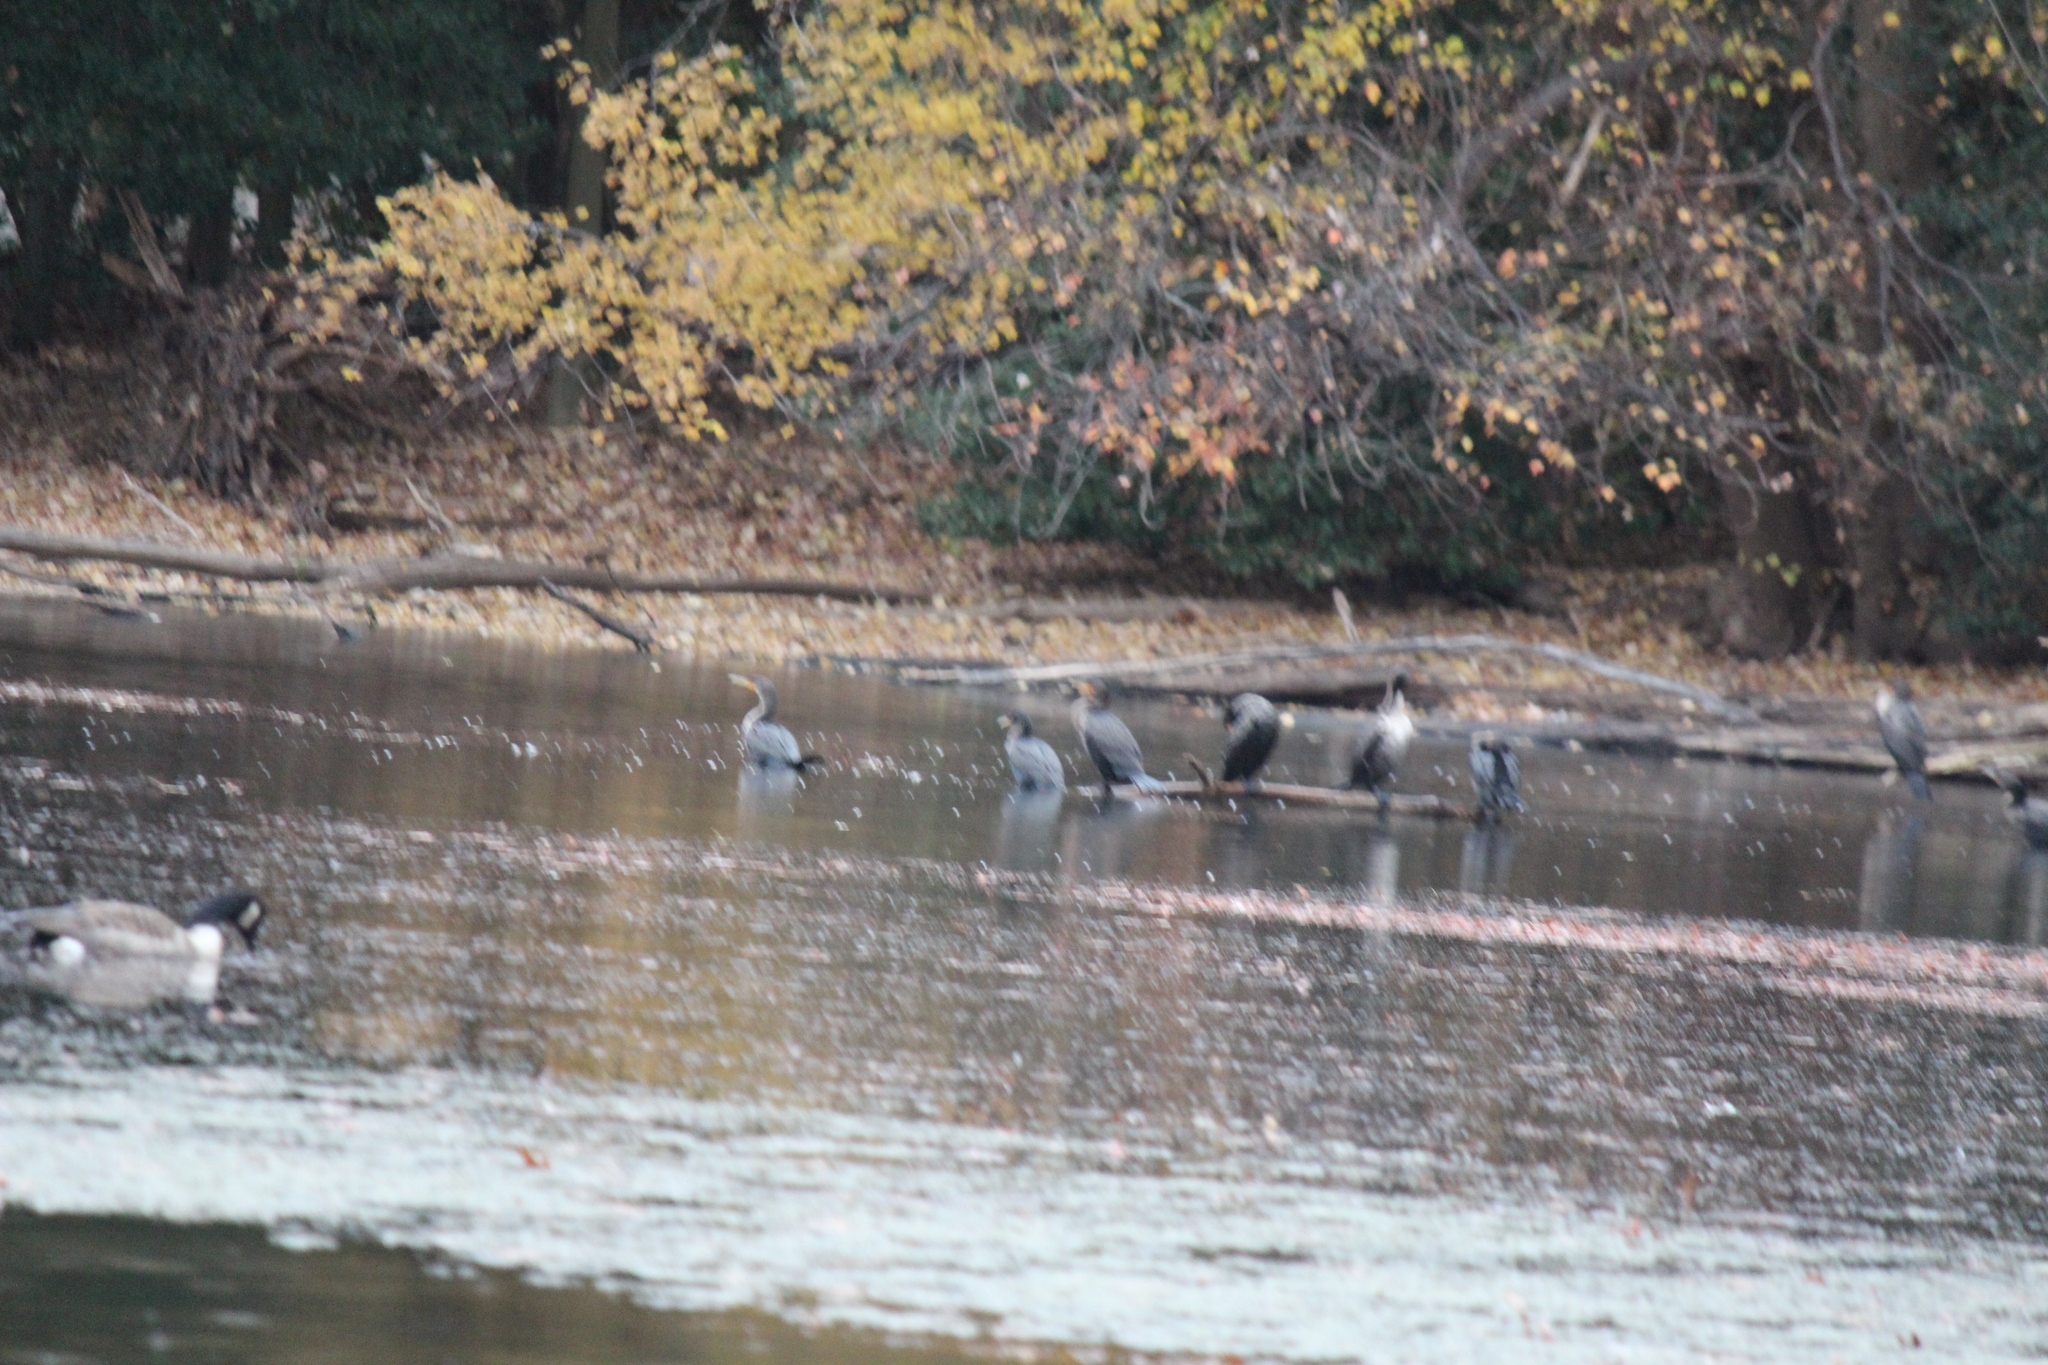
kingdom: Animalia
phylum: Chordata
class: Aves
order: Suliformes
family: Phalacrocoracidae
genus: Phalacrocorax
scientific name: Phalacrocorax auritus
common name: Double-crested cormorant
